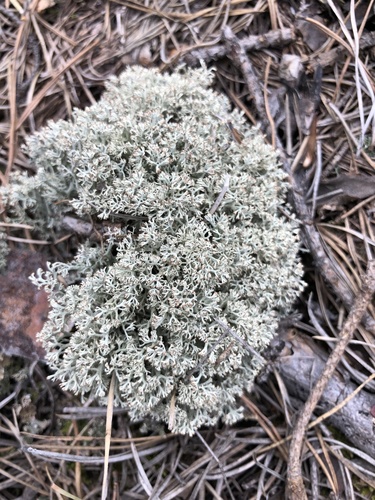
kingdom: Fungi
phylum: Ascomycota
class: Lecanoromycetes
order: Lecanorales
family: Cladoniaceae
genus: Cladonia
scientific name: Cladonia arbuscula
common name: Reindeer lichen
